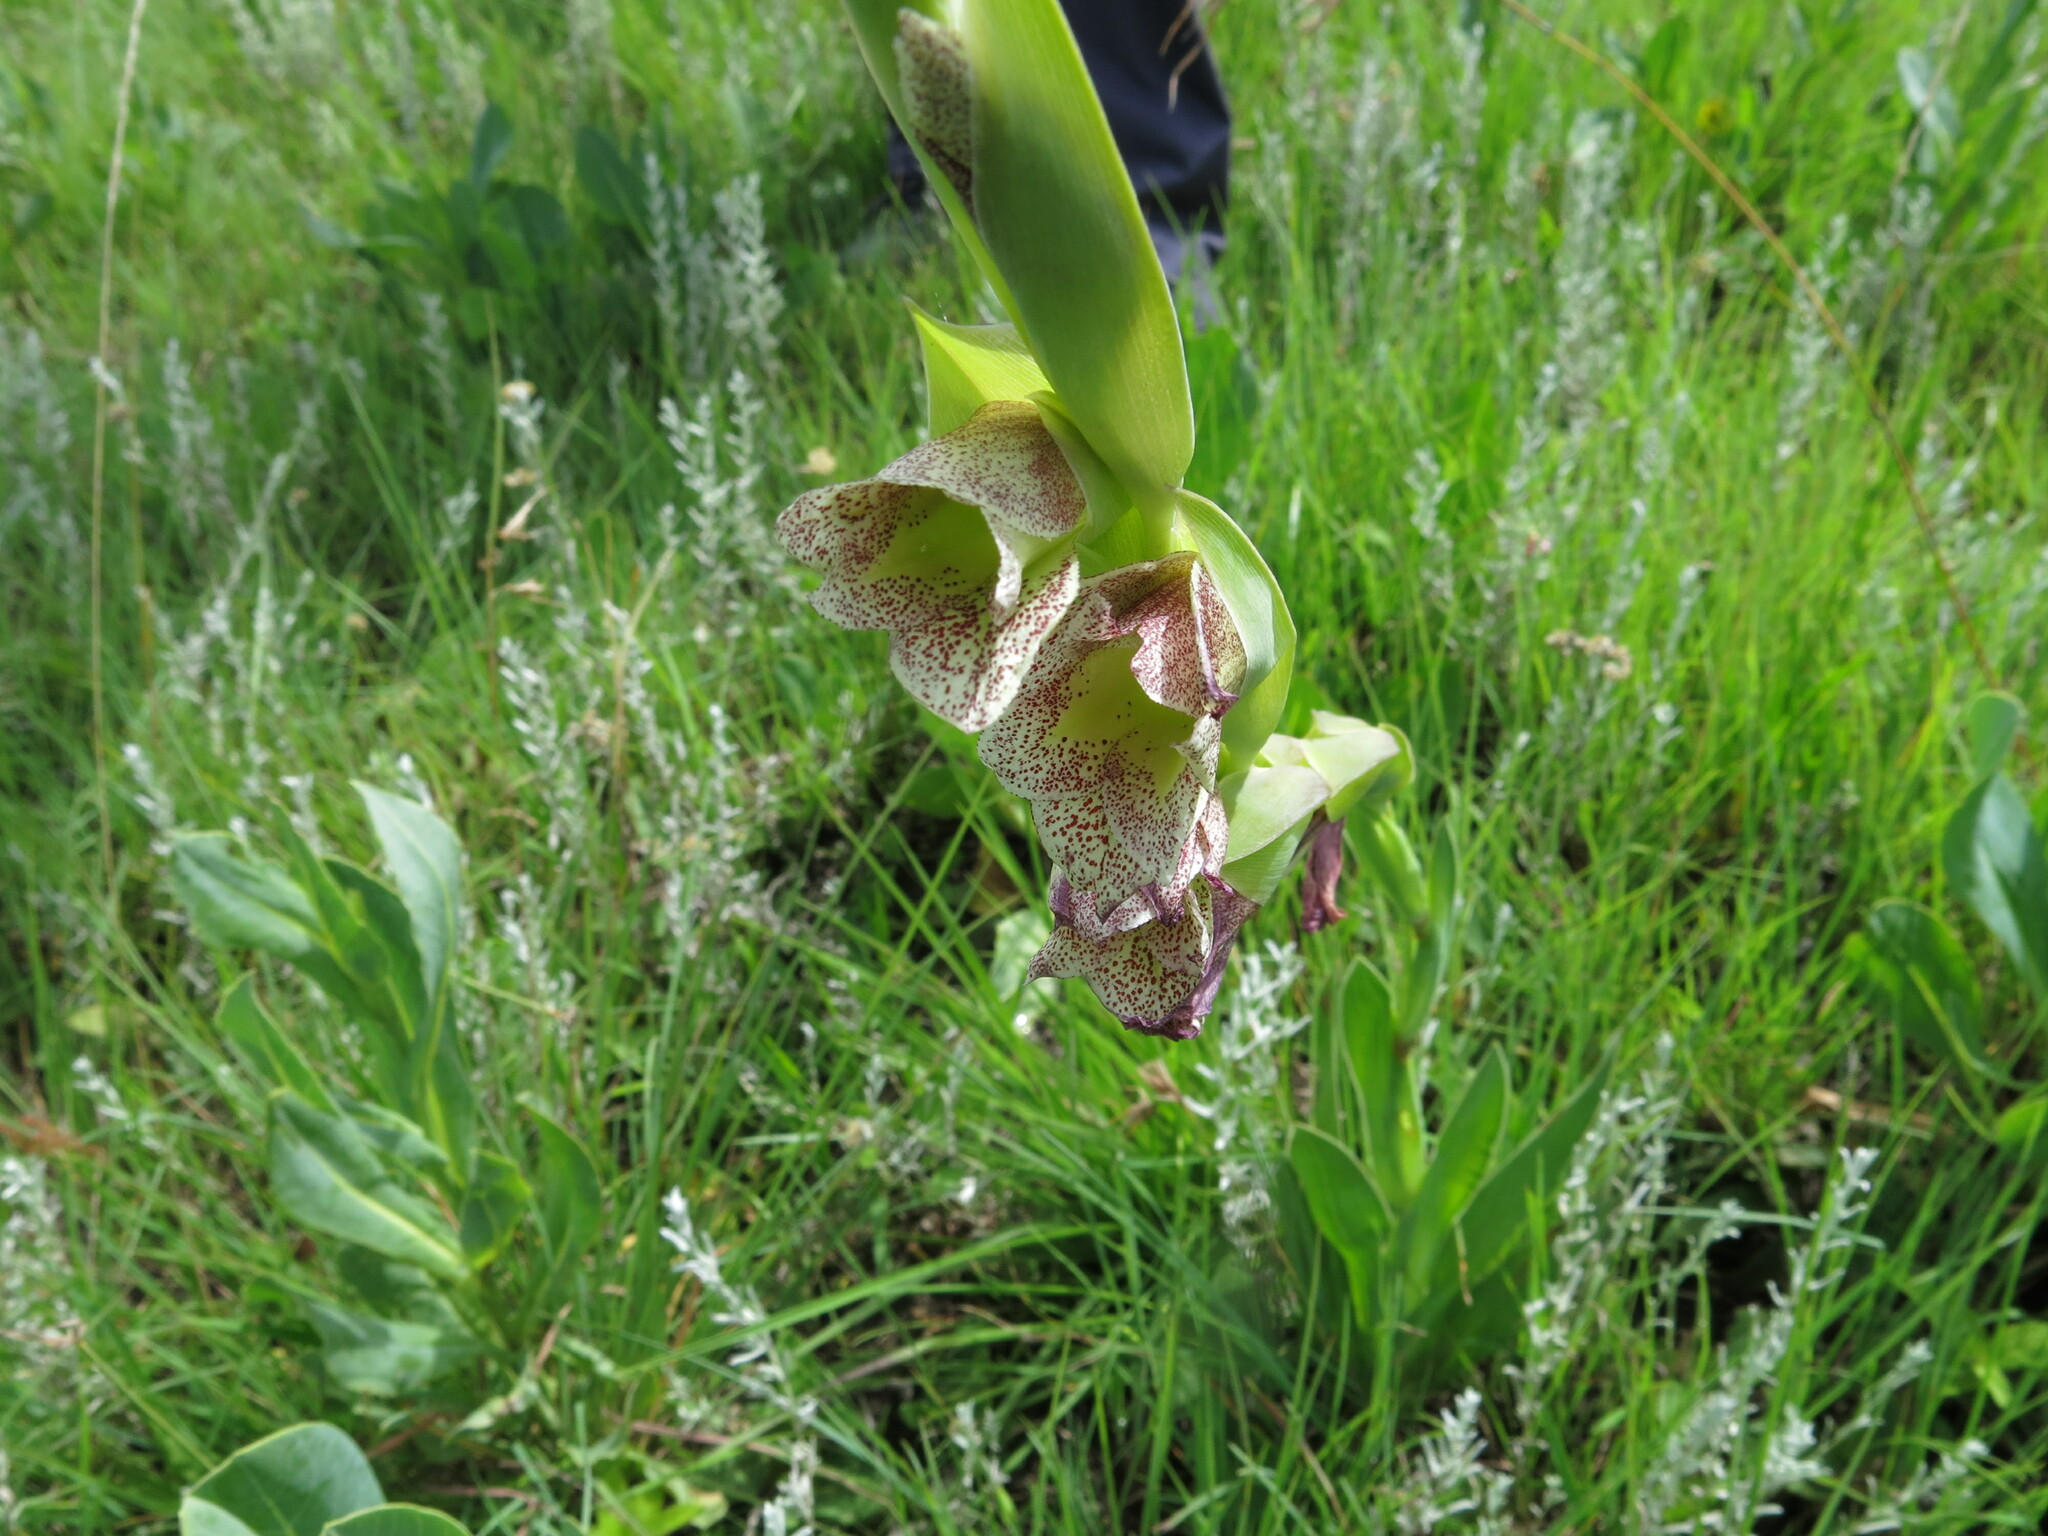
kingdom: Plantae
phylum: Tracheophyta
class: Liliopsida
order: Asparagales
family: Iridaceae
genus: Gladiolus
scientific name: Gladiolus ecklonii
